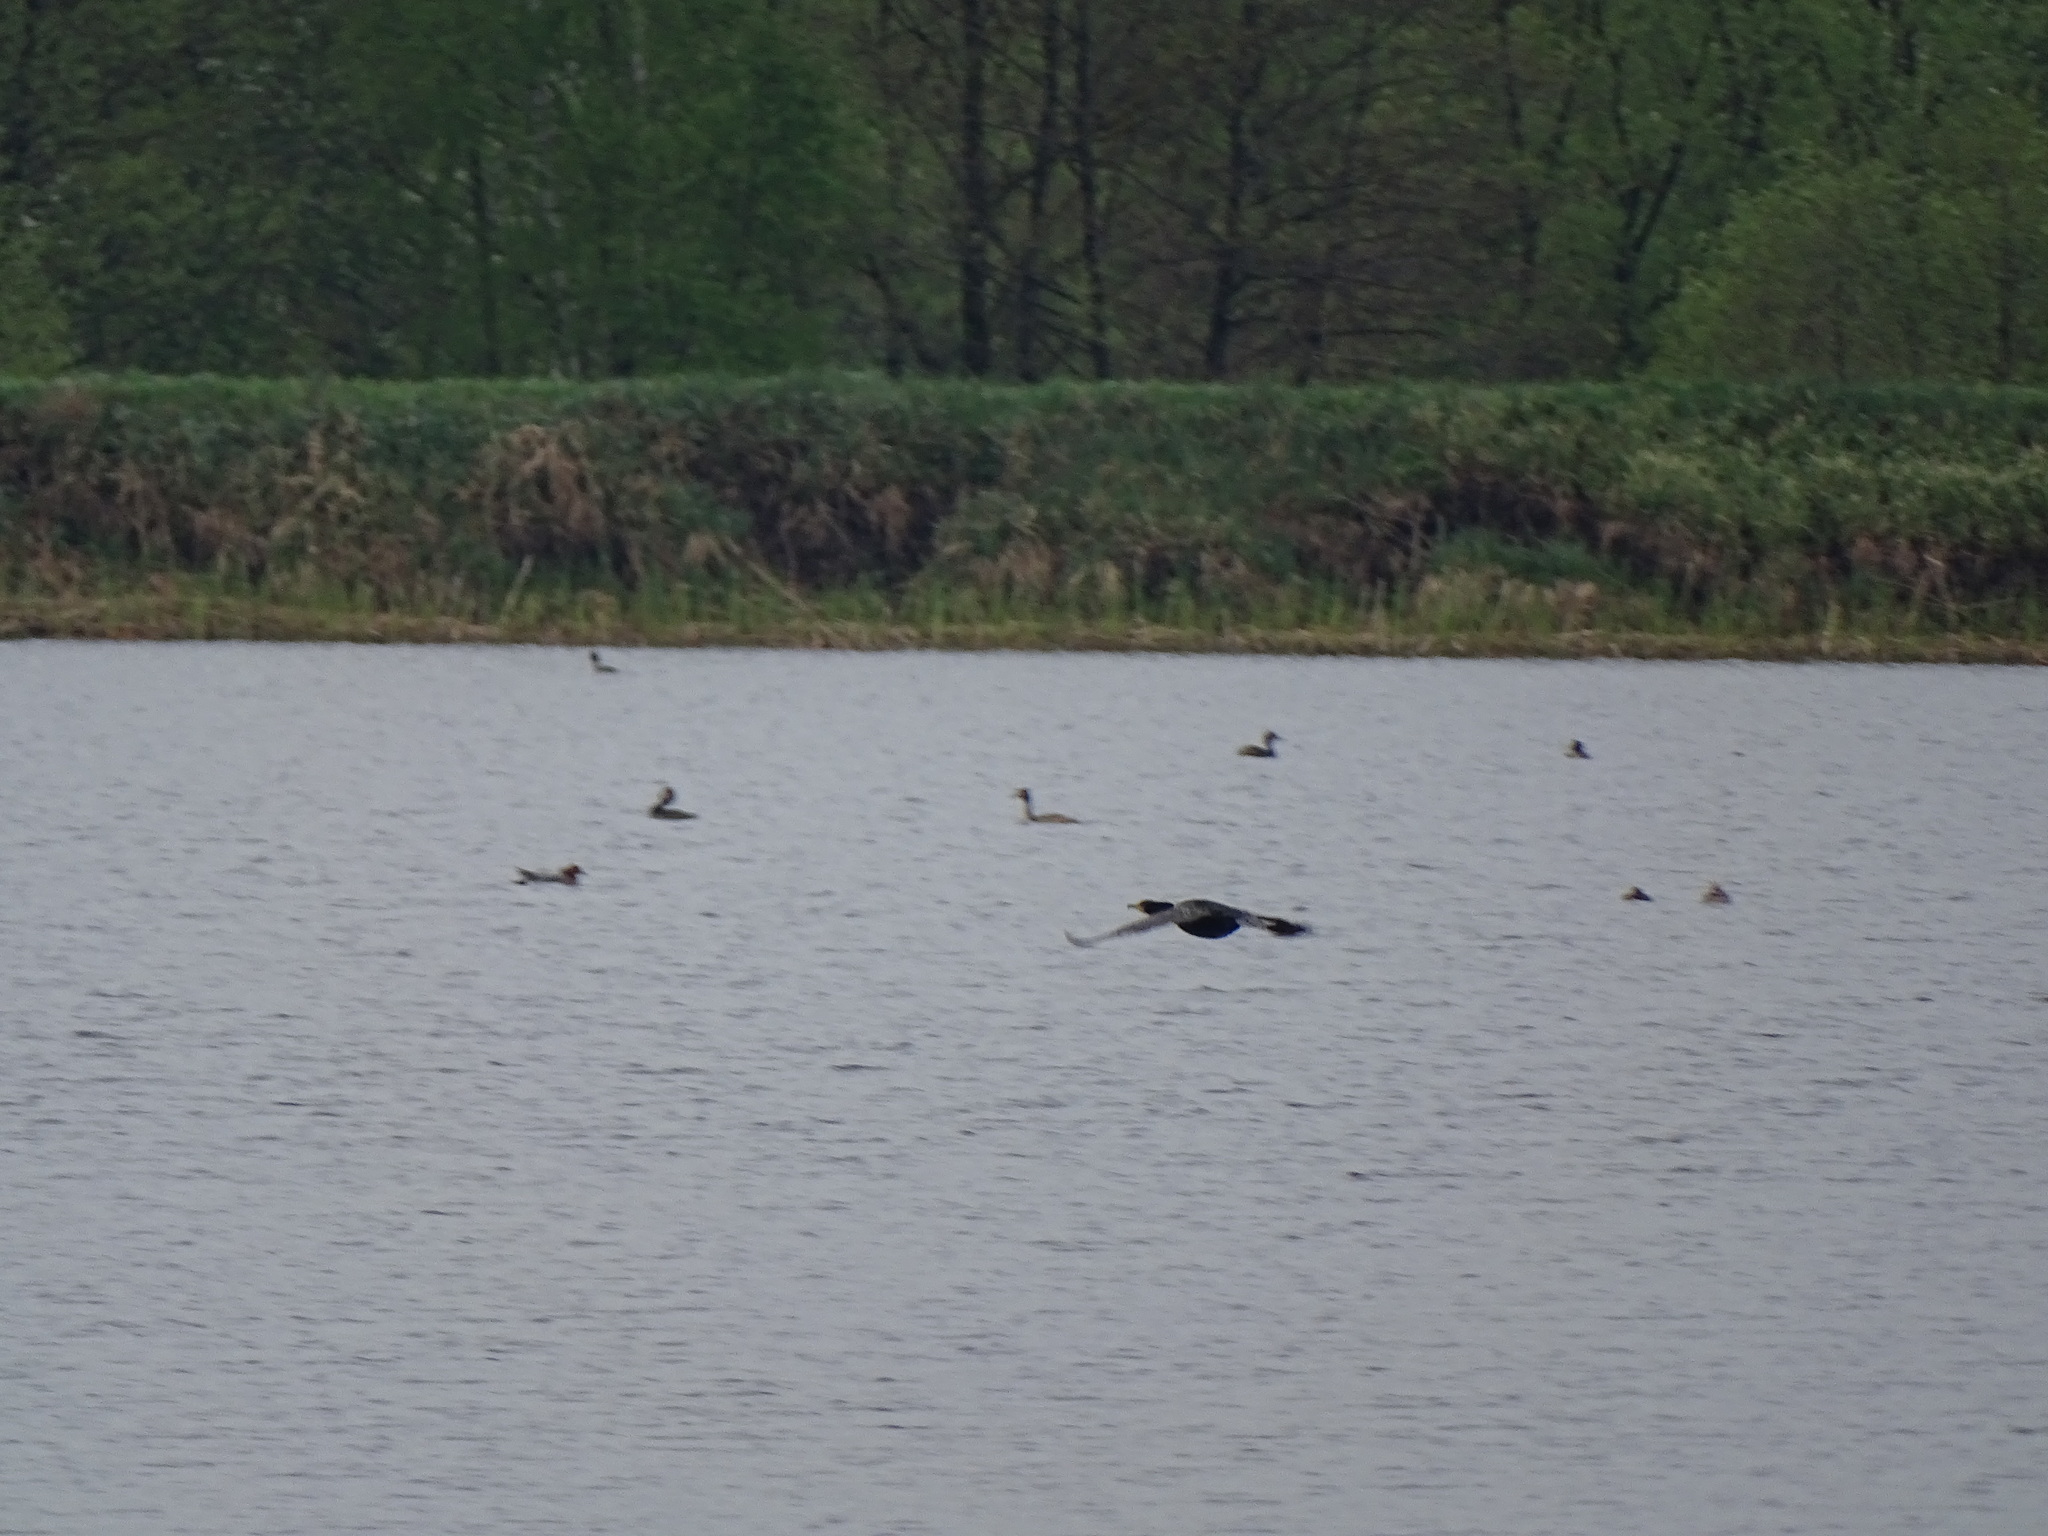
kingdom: Animalia
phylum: Chordata
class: Aves
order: Suliformes
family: Phalacrocoracidae
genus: Phalacrocorax
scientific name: Phalacrocorax carbo
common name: Great cormorant
